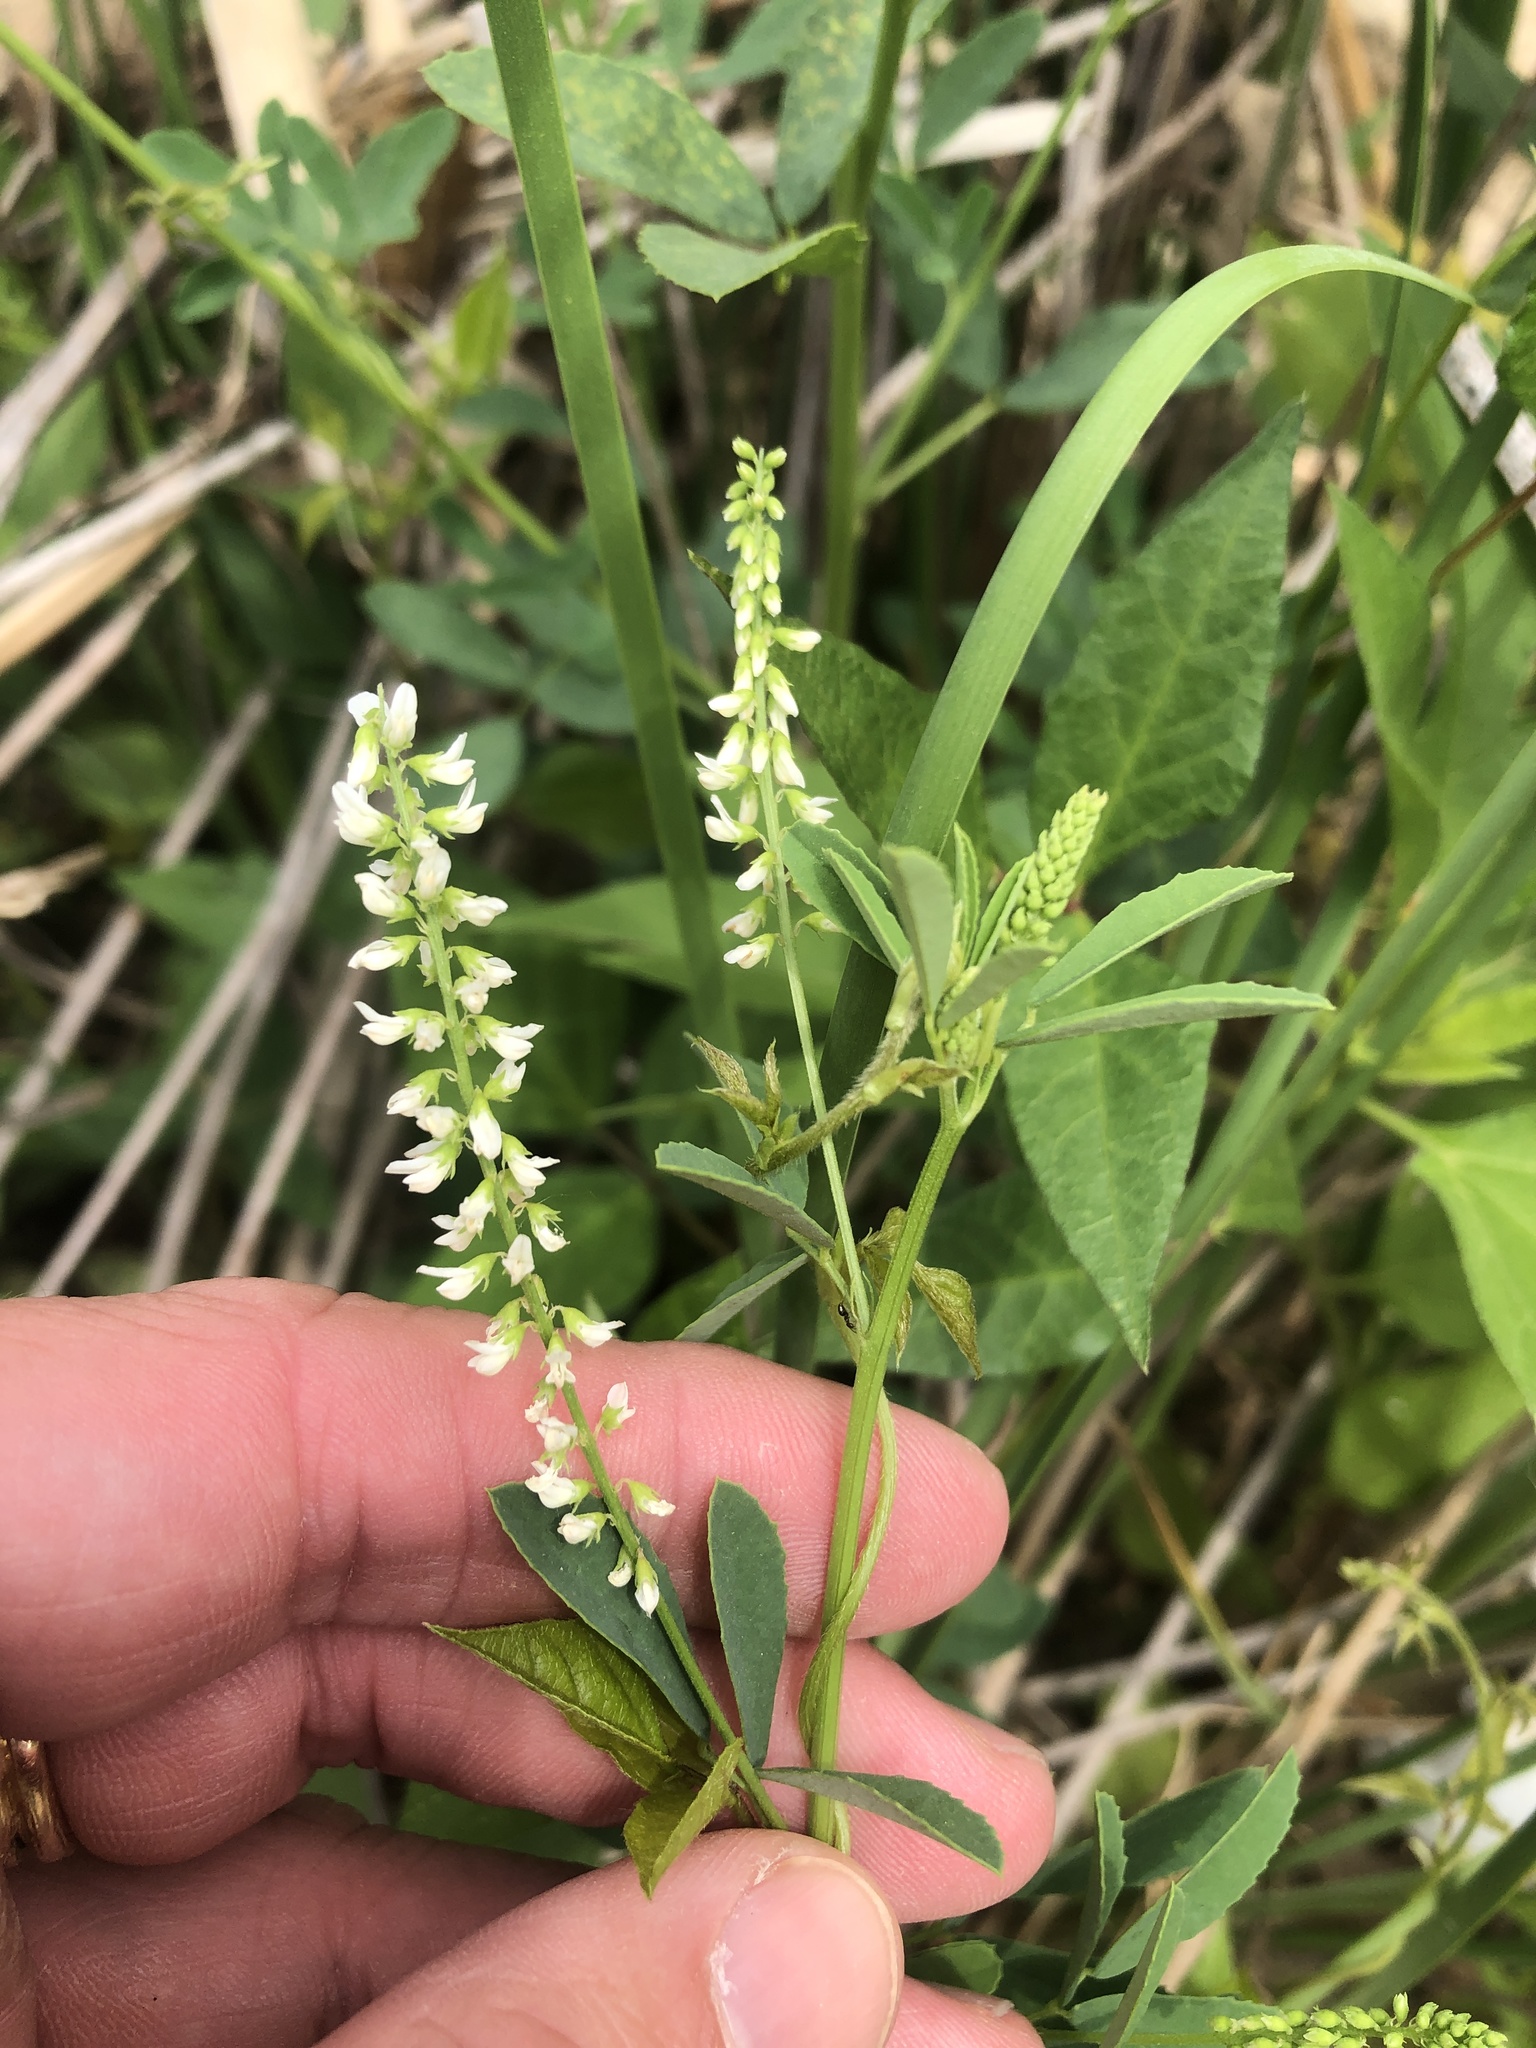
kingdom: Plantae
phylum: Tracheophyta
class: Magnoliopsida
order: Fabales
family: Fabaceae
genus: Melilotus
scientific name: Melilotus albus
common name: White melilot
